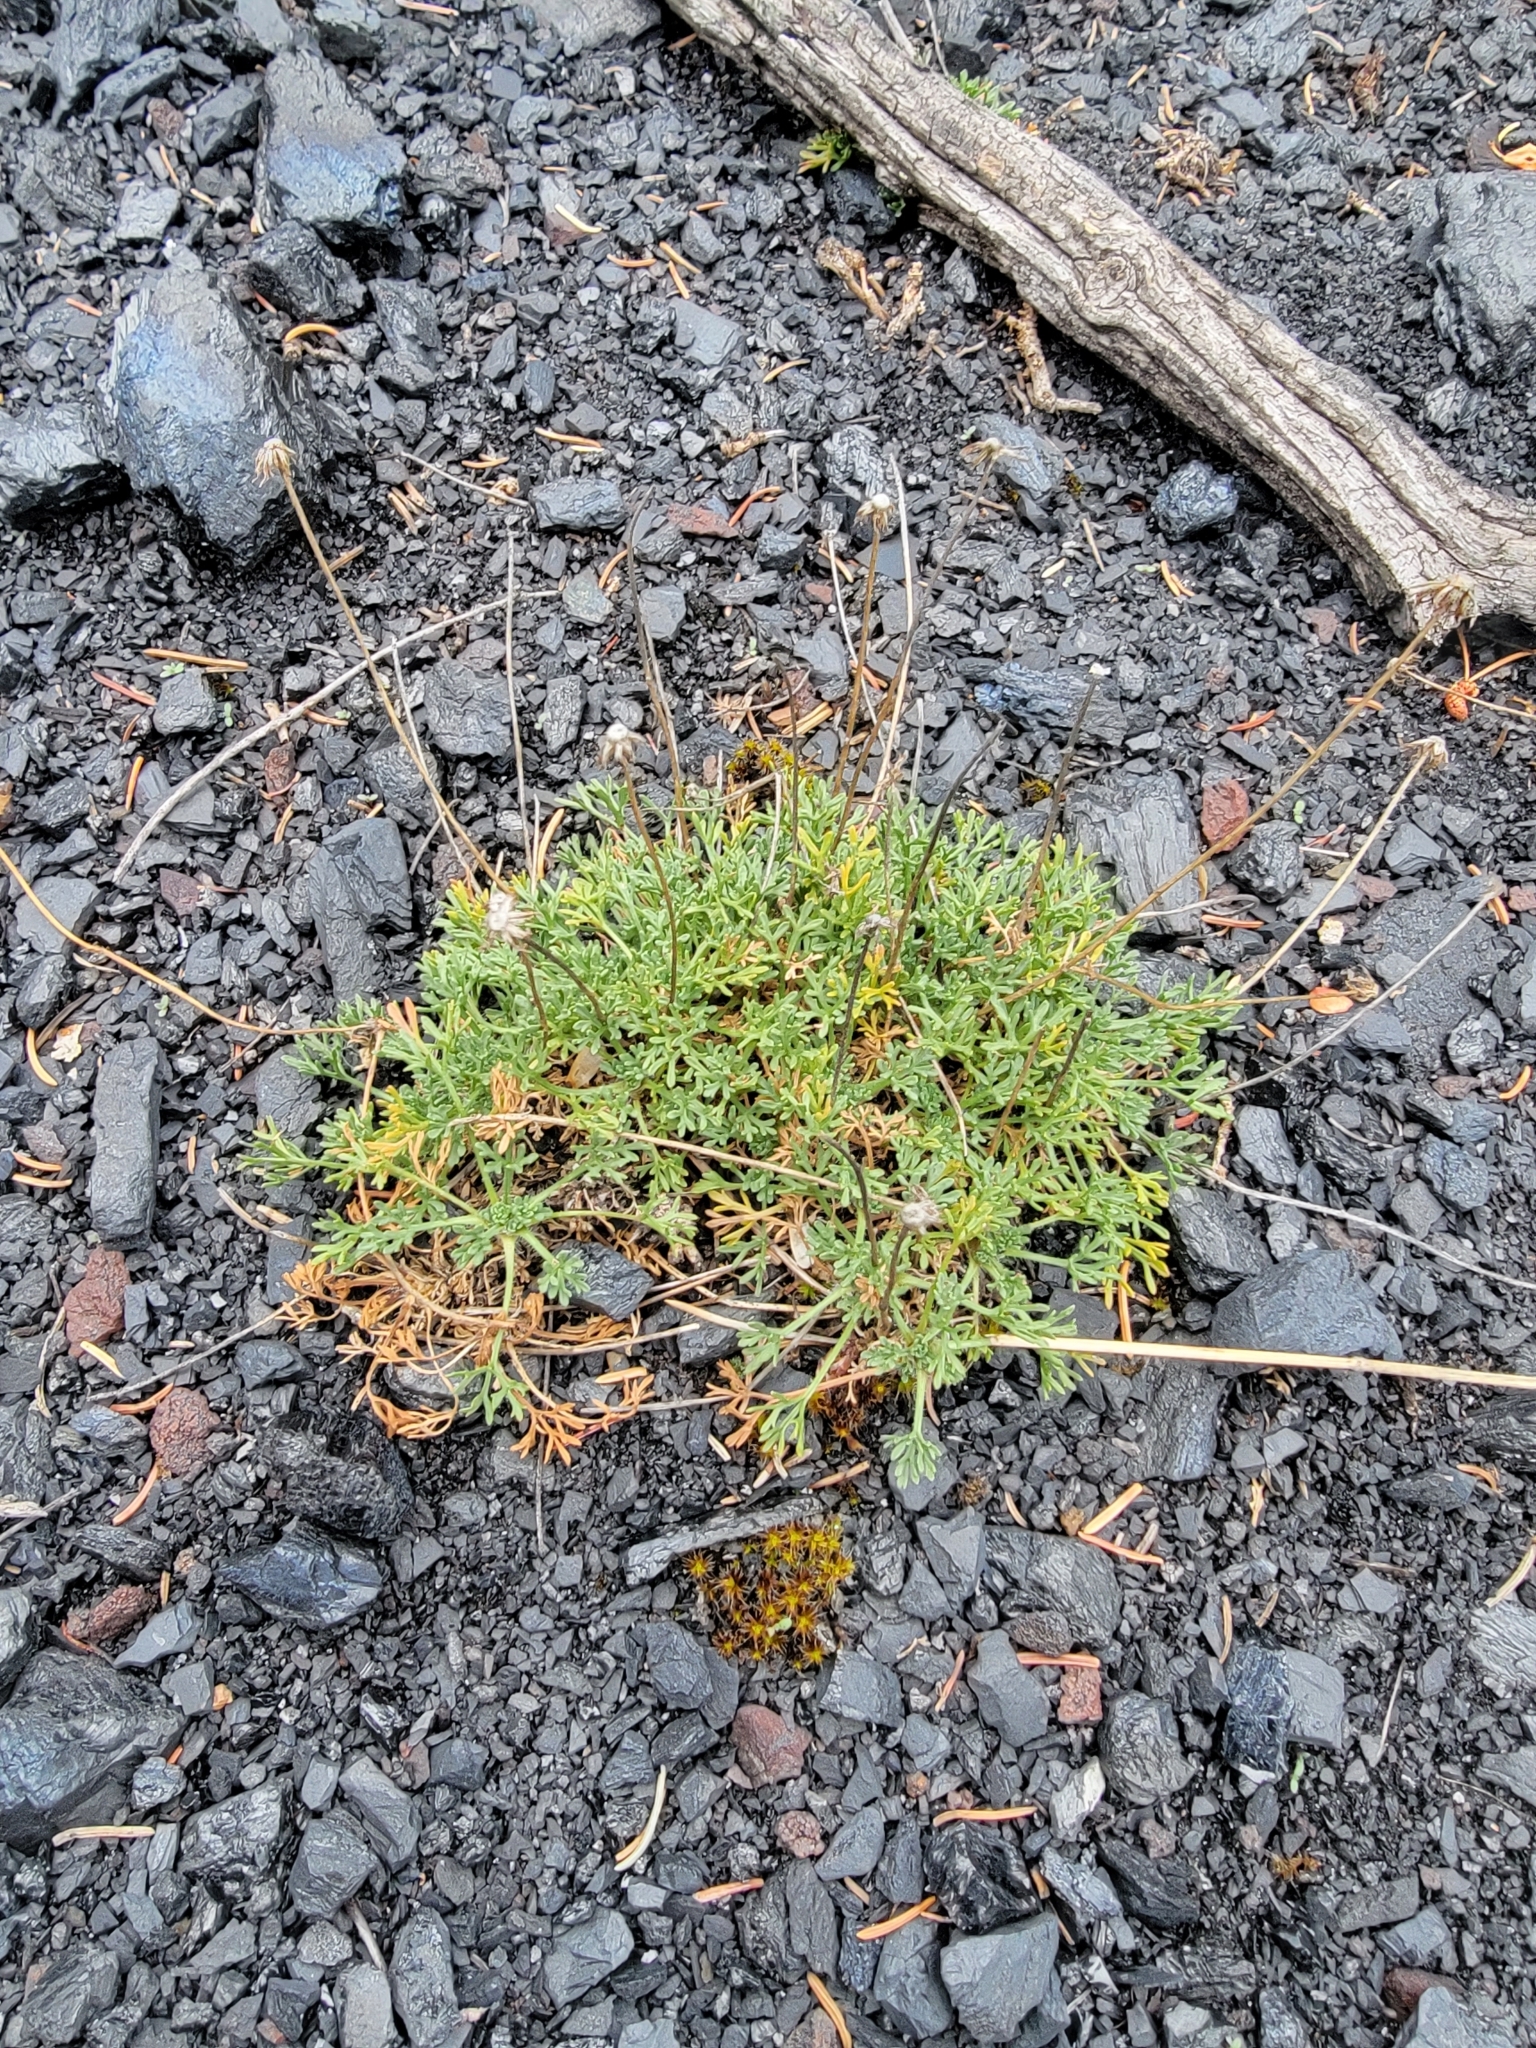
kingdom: Plantae
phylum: Tracheophyta
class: Magnoliopsida
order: Asterales
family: Asteraceae
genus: Erigeron
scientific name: Erigeron compositus
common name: Dwarf mountain fleabane
